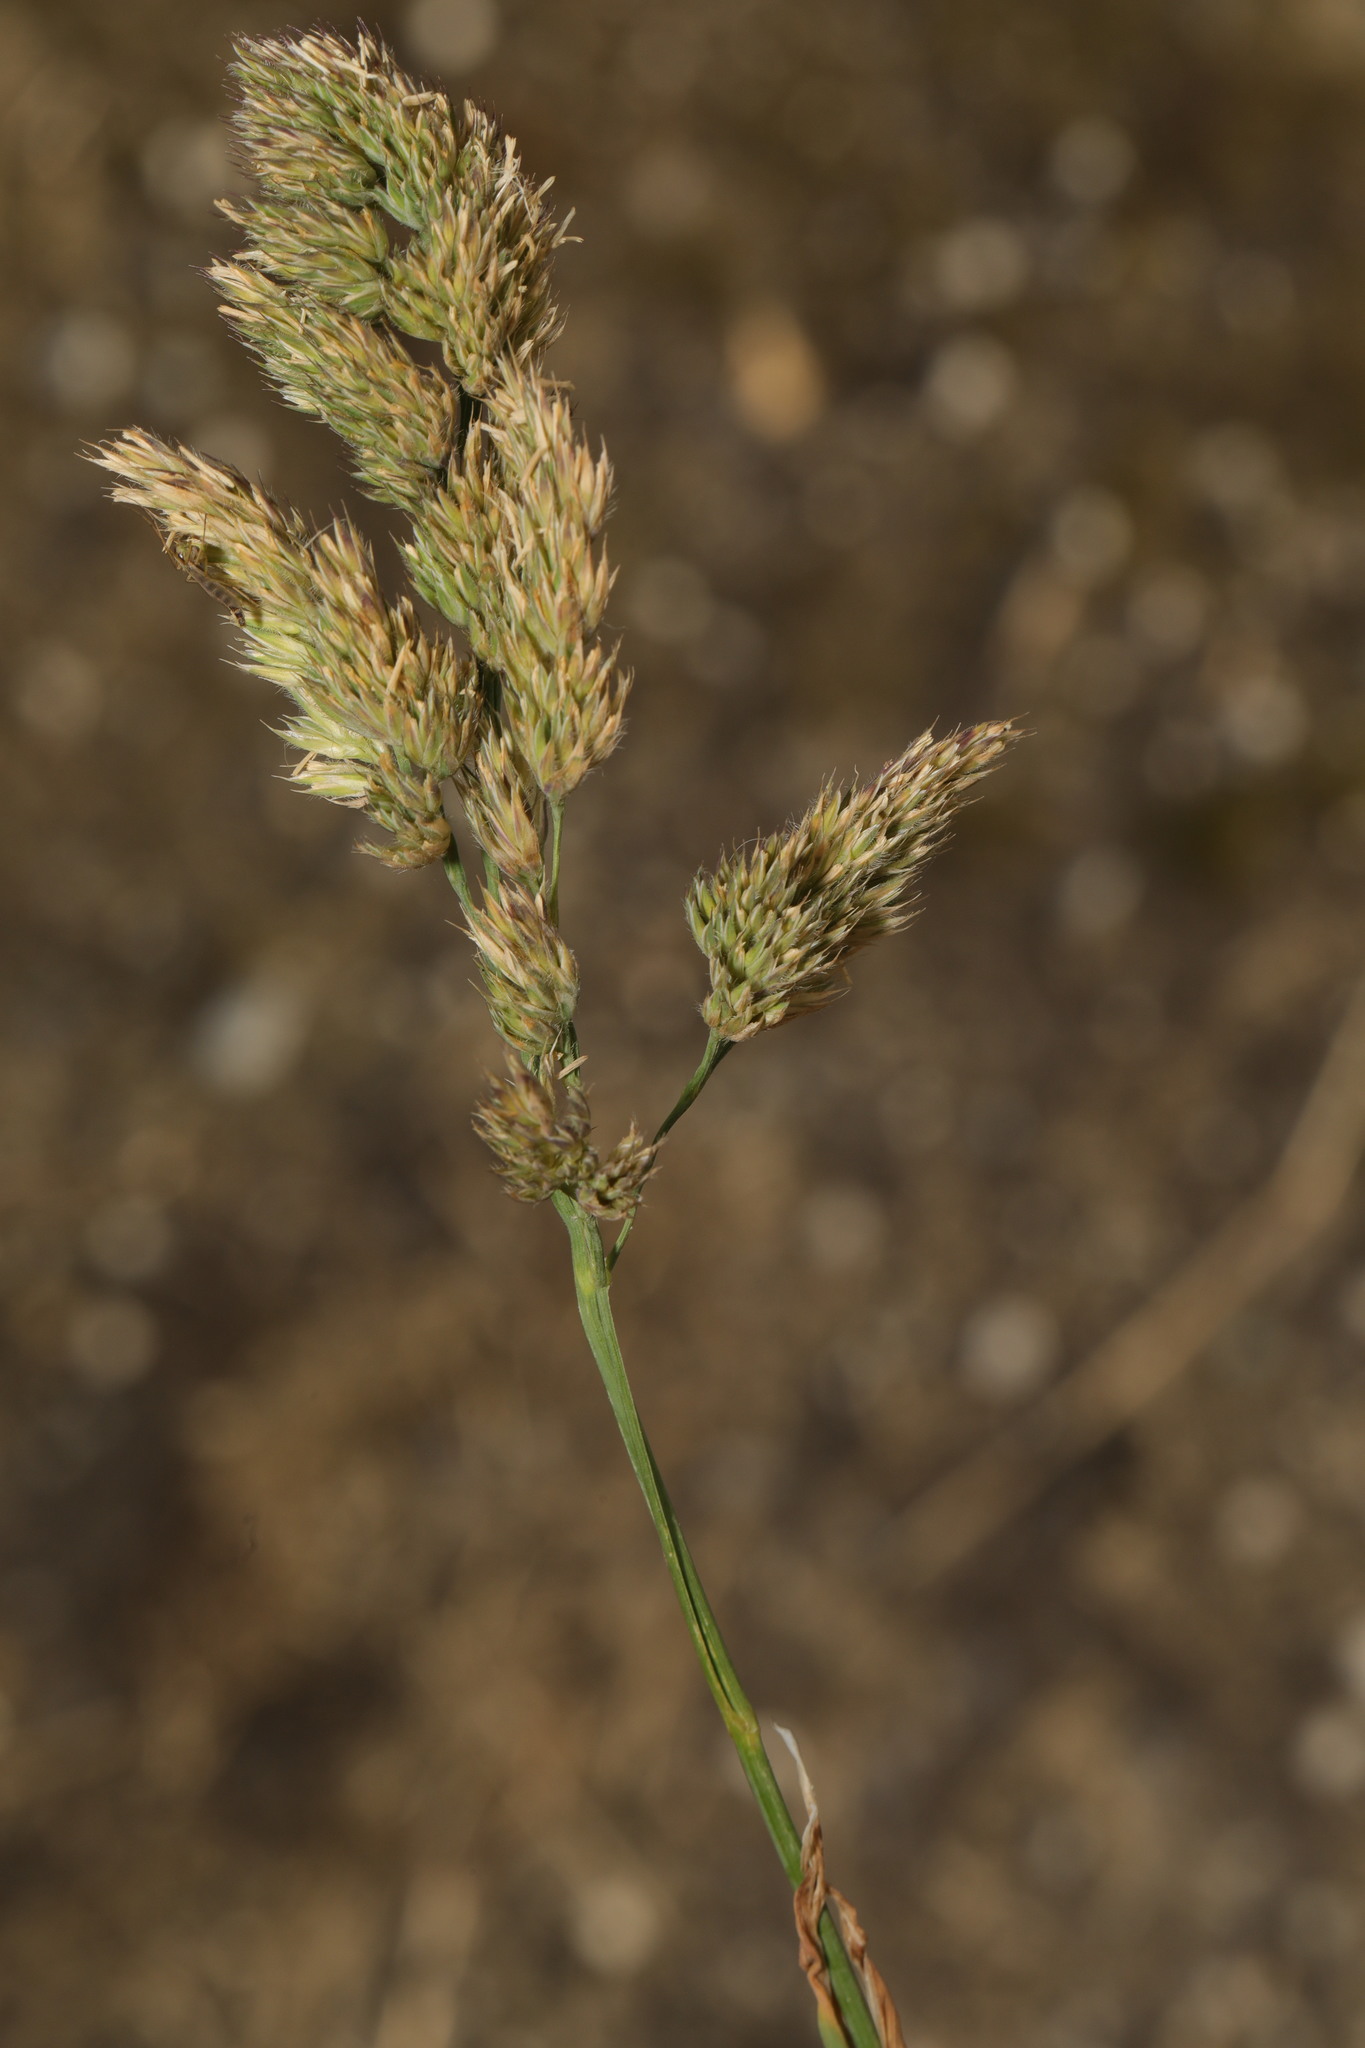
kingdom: Plantae
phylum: Tracheophyta
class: Liliopsida
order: Poales
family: Poaceae
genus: Polypogon
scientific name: Polypogon viridis
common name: Water bent
